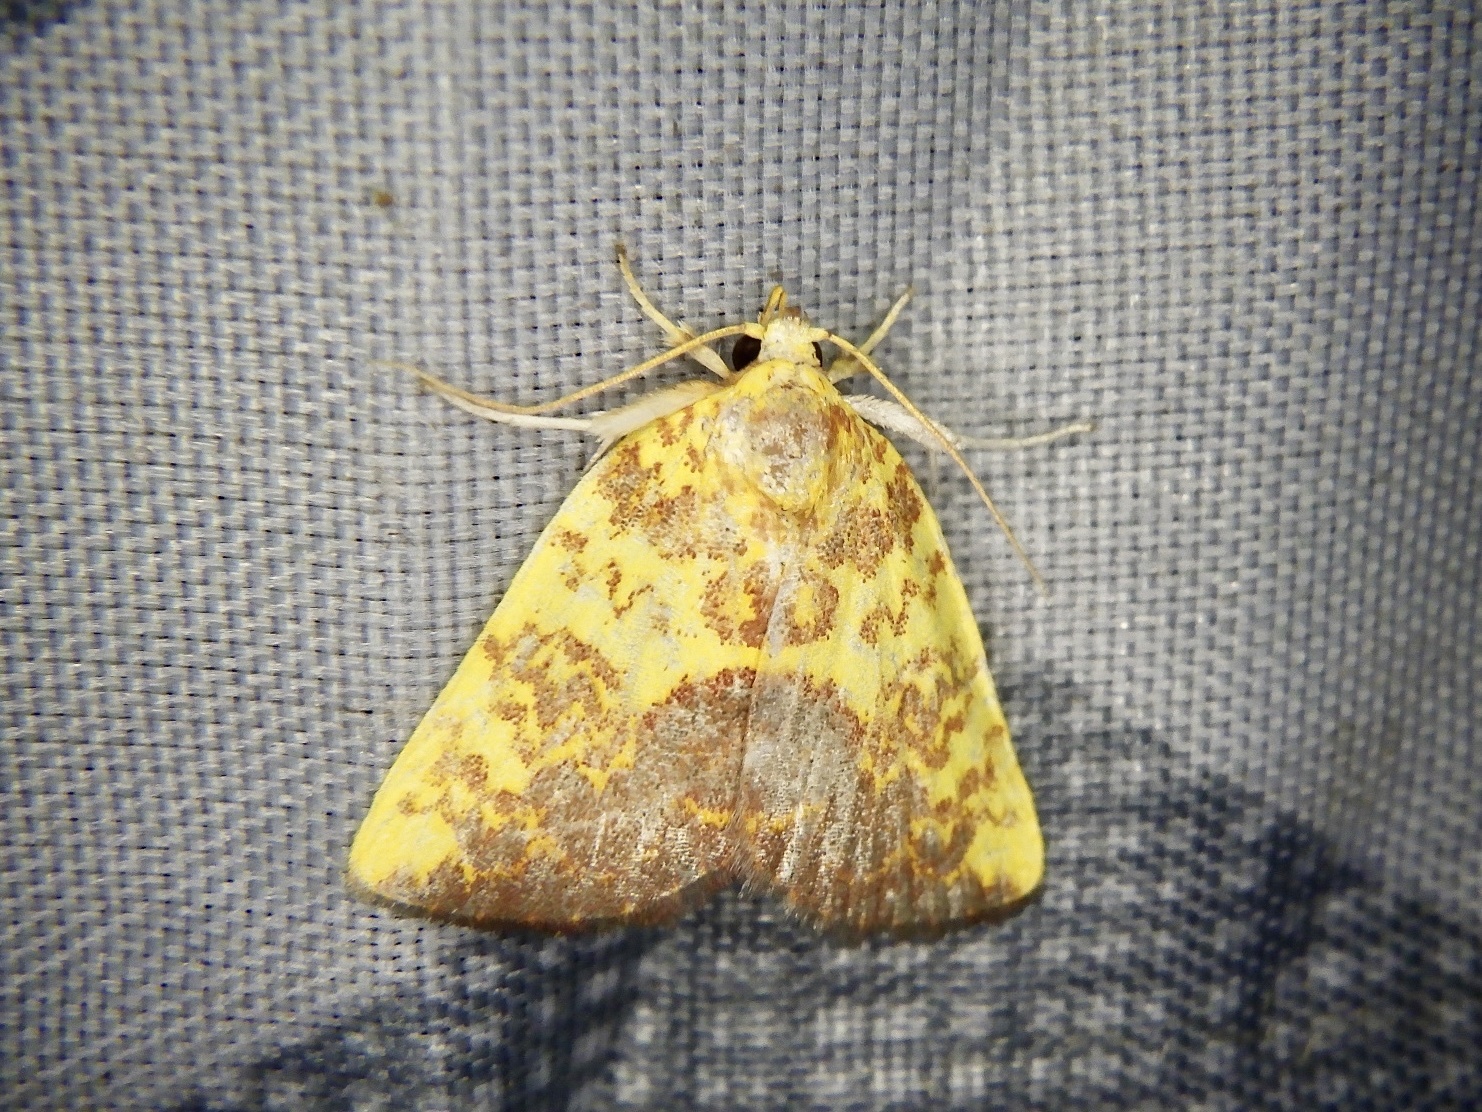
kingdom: Animalia
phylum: Arthropoda
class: Insecta
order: Lepidoptera
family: Nolidae
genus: Siglophora
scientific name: Siglophora ferreilutea
